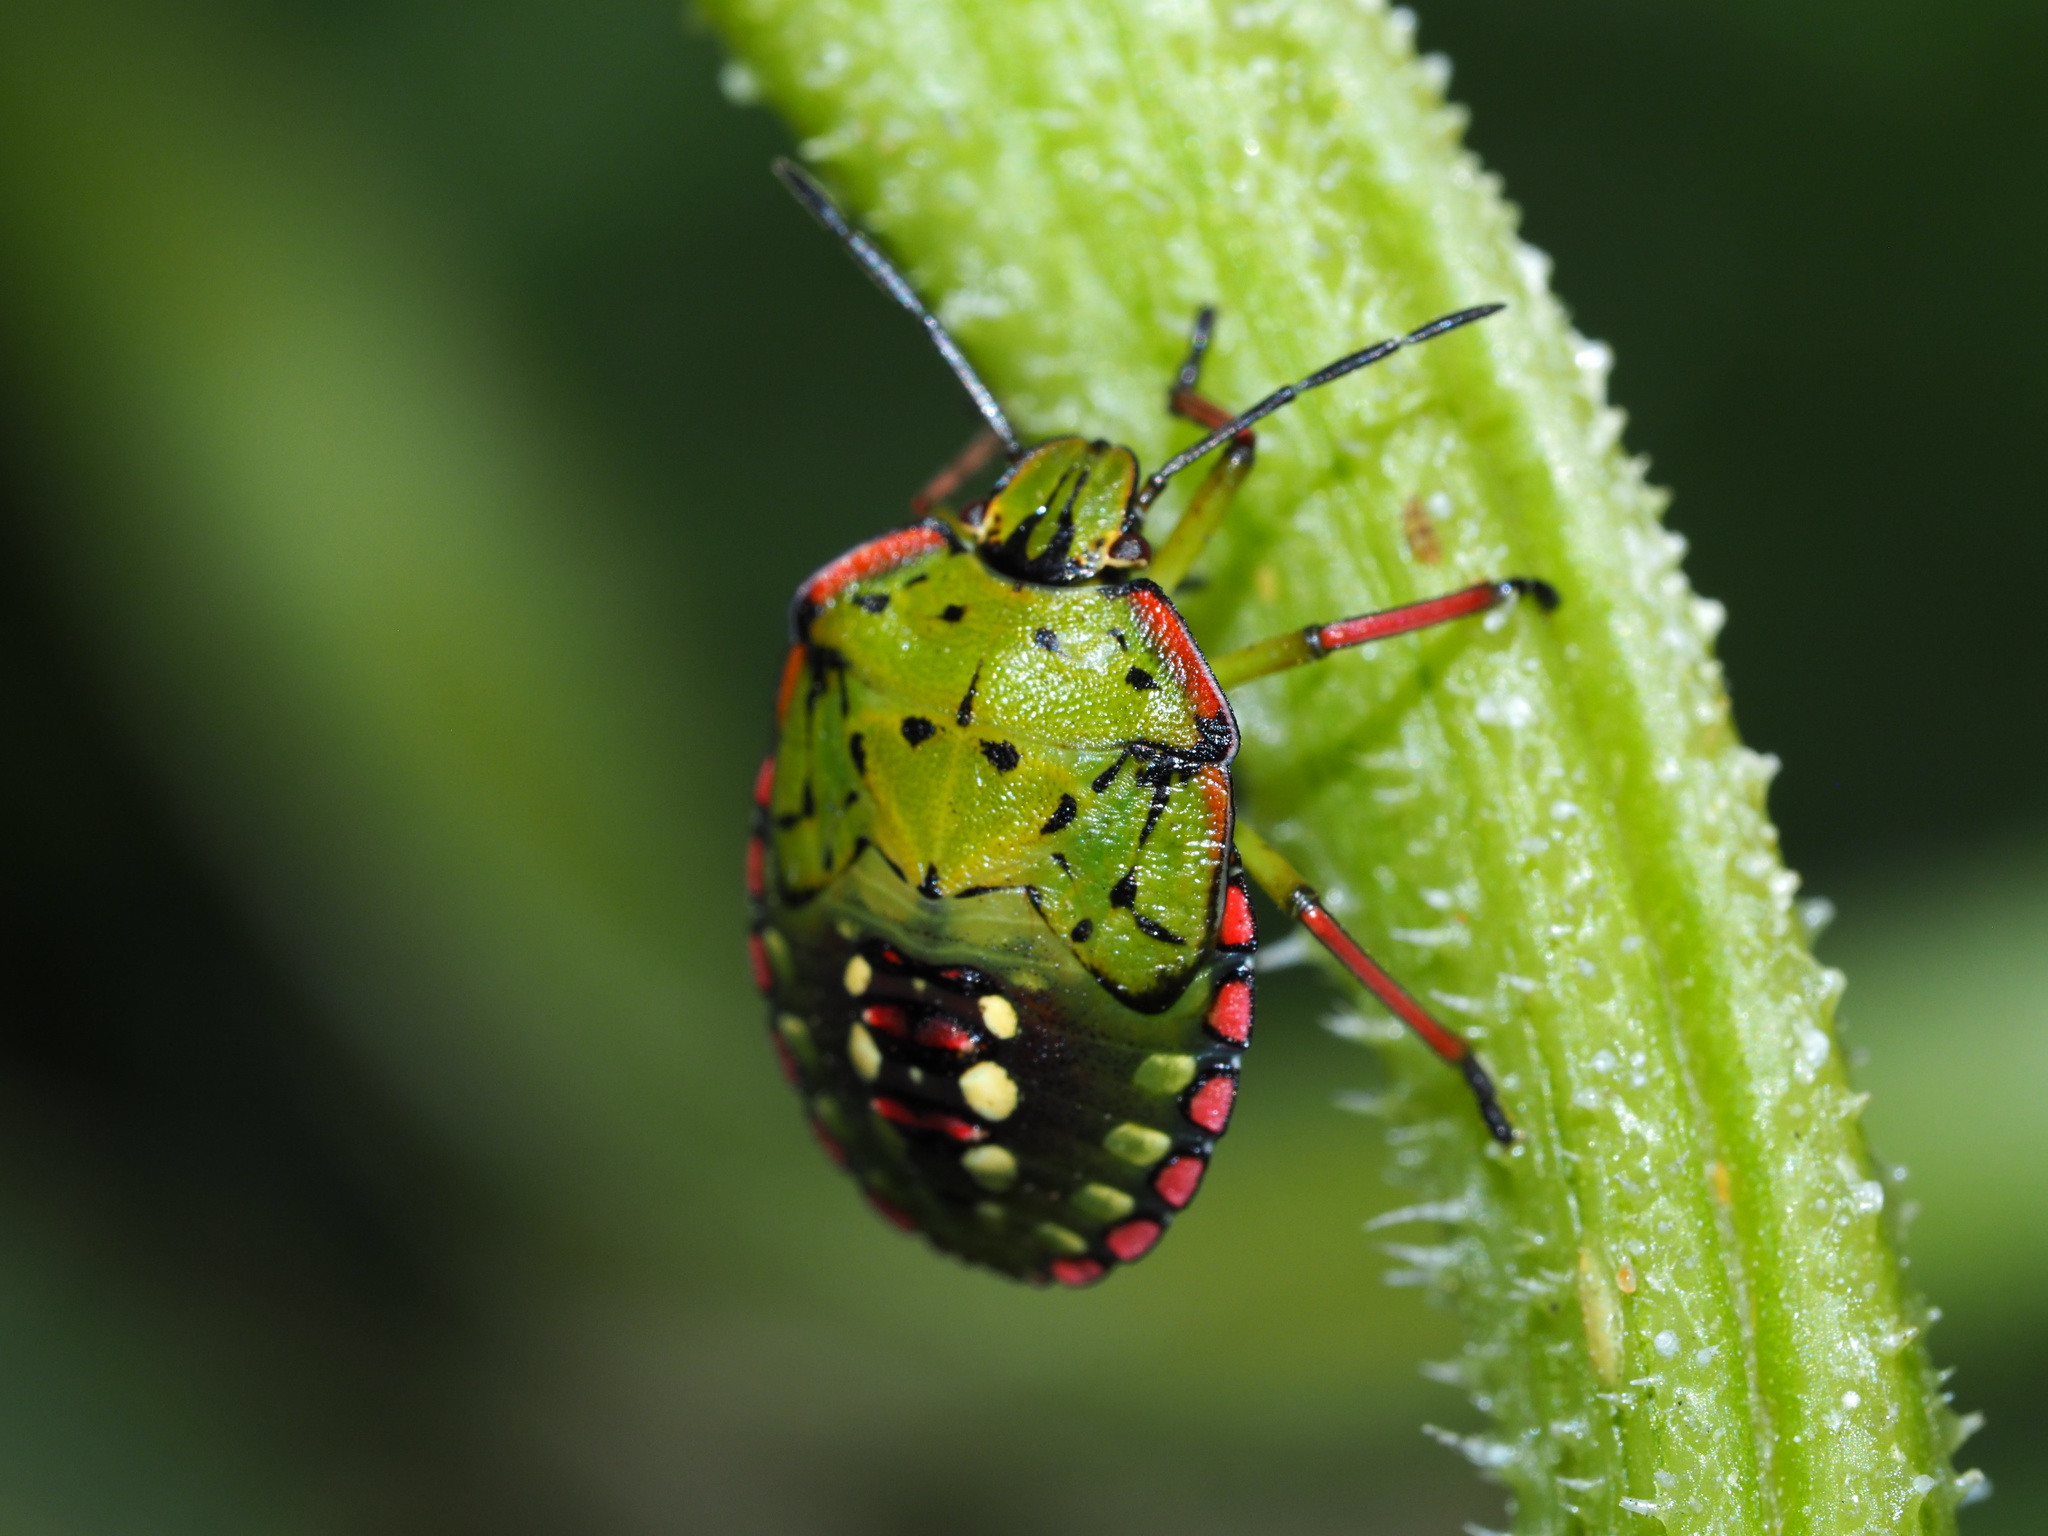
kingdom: Animalia
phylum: Arthropoda
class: Insecta
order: Hemiptera
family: Pentatomidae
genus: Nezara
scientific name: Nezara viridula
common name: Southern green stink bug
